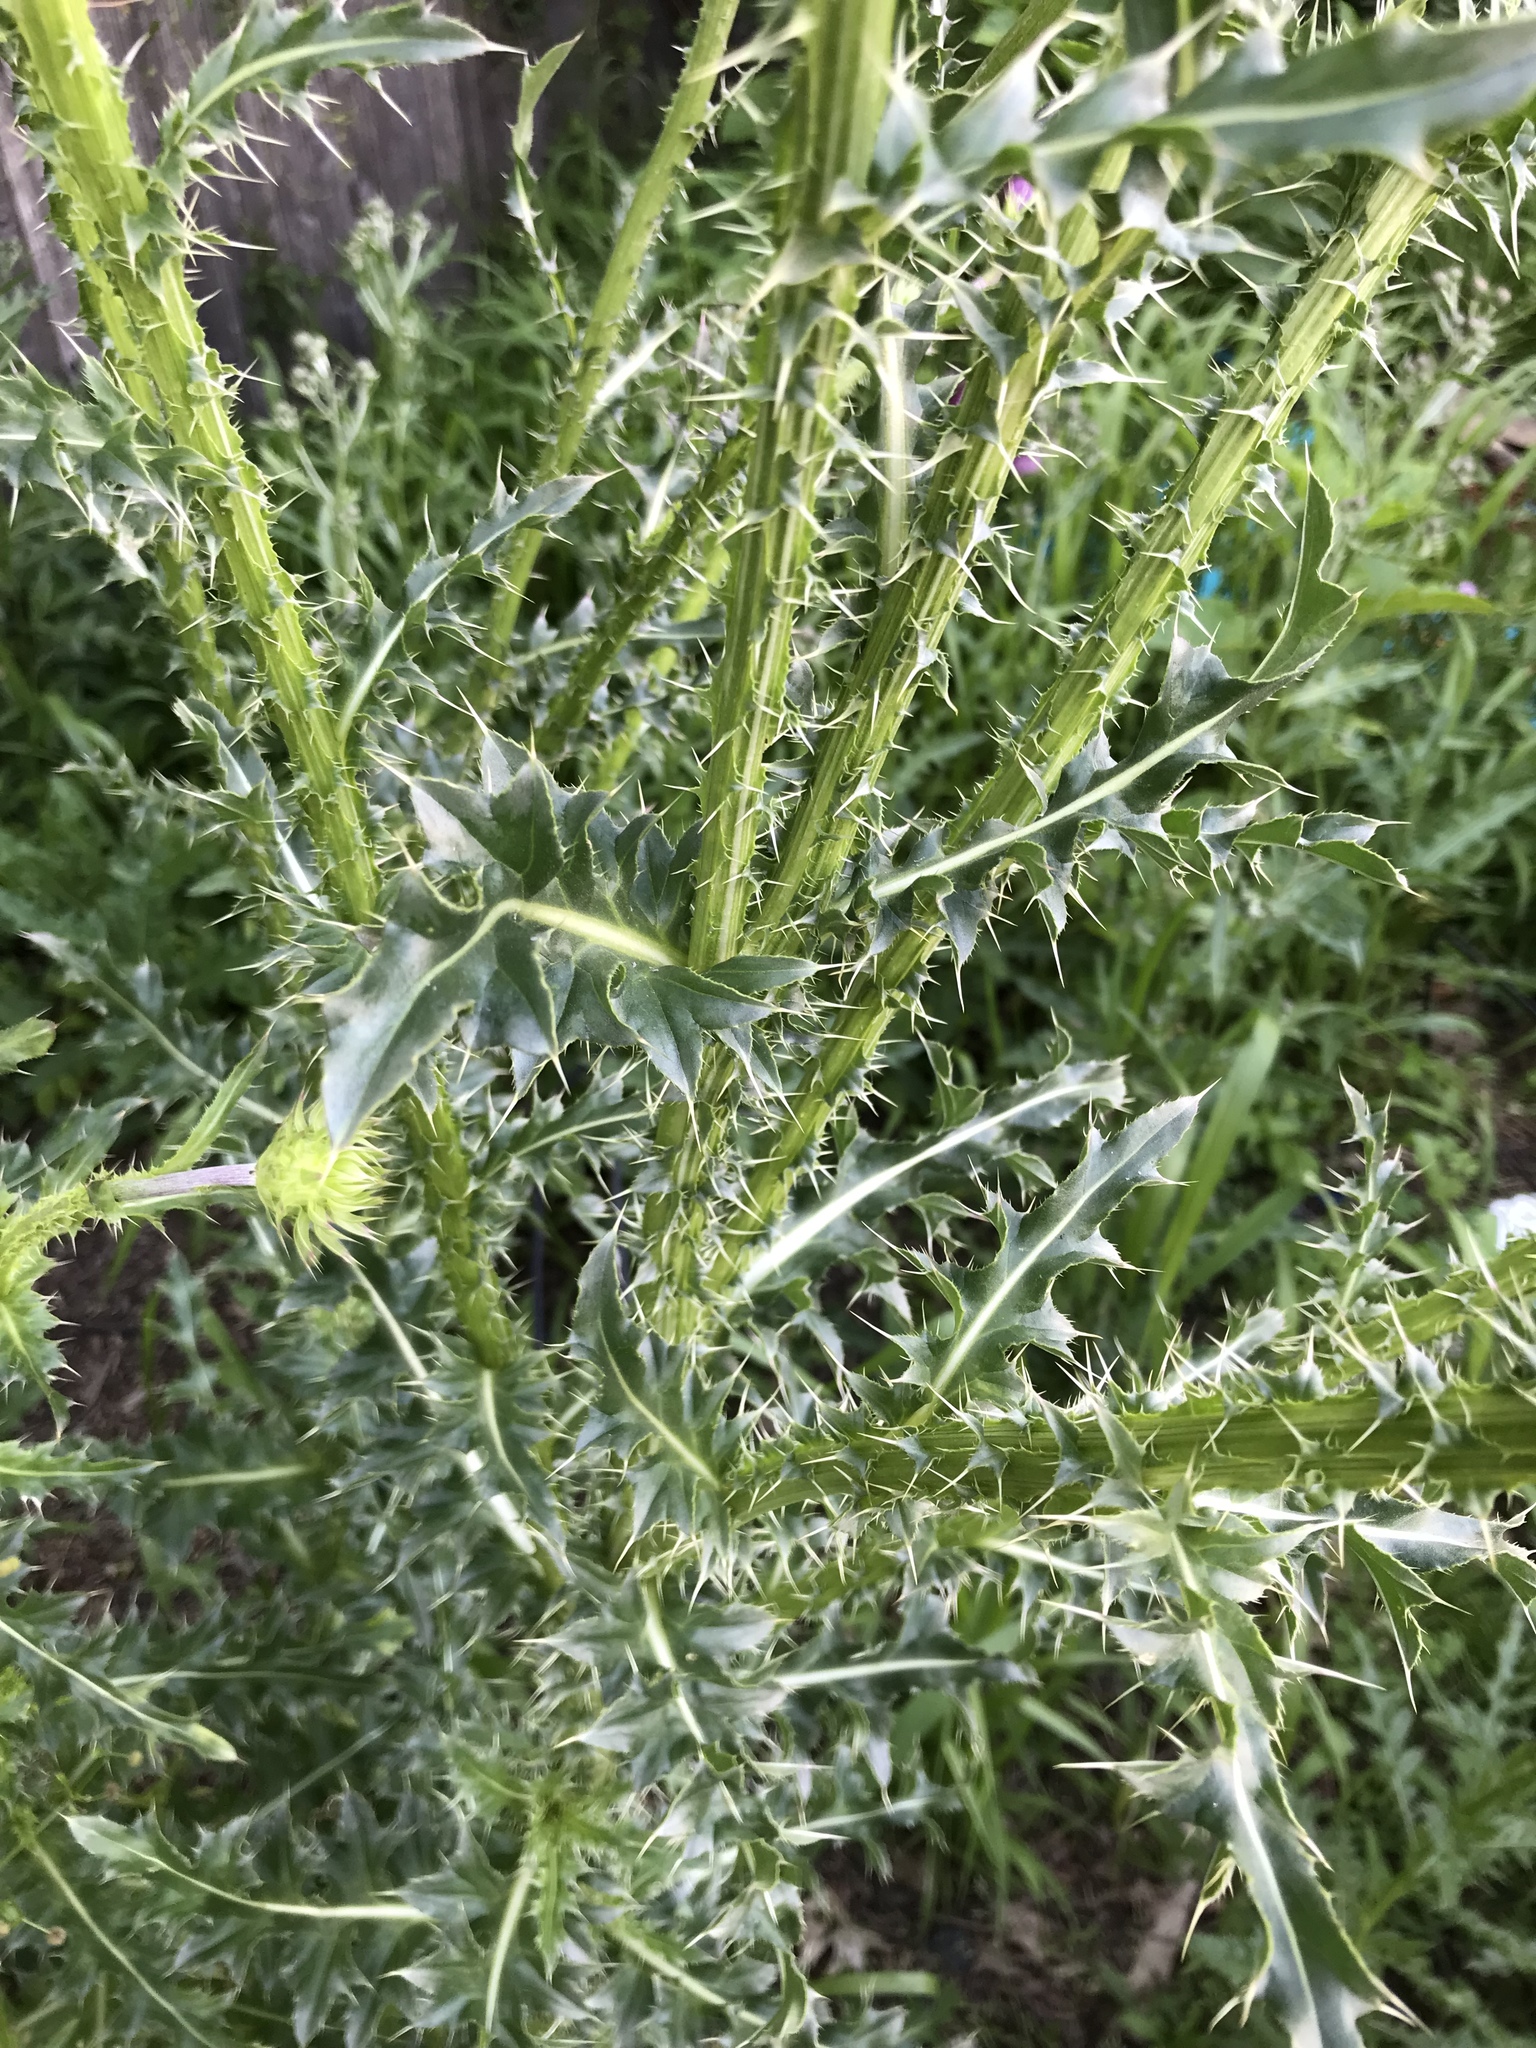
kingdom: Plantae
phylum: Tracheophyta
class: Magnoliopsida
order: Asterales
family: Asteraceae
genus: Carduus
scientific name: Carduus nutans
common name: Musk thistle
